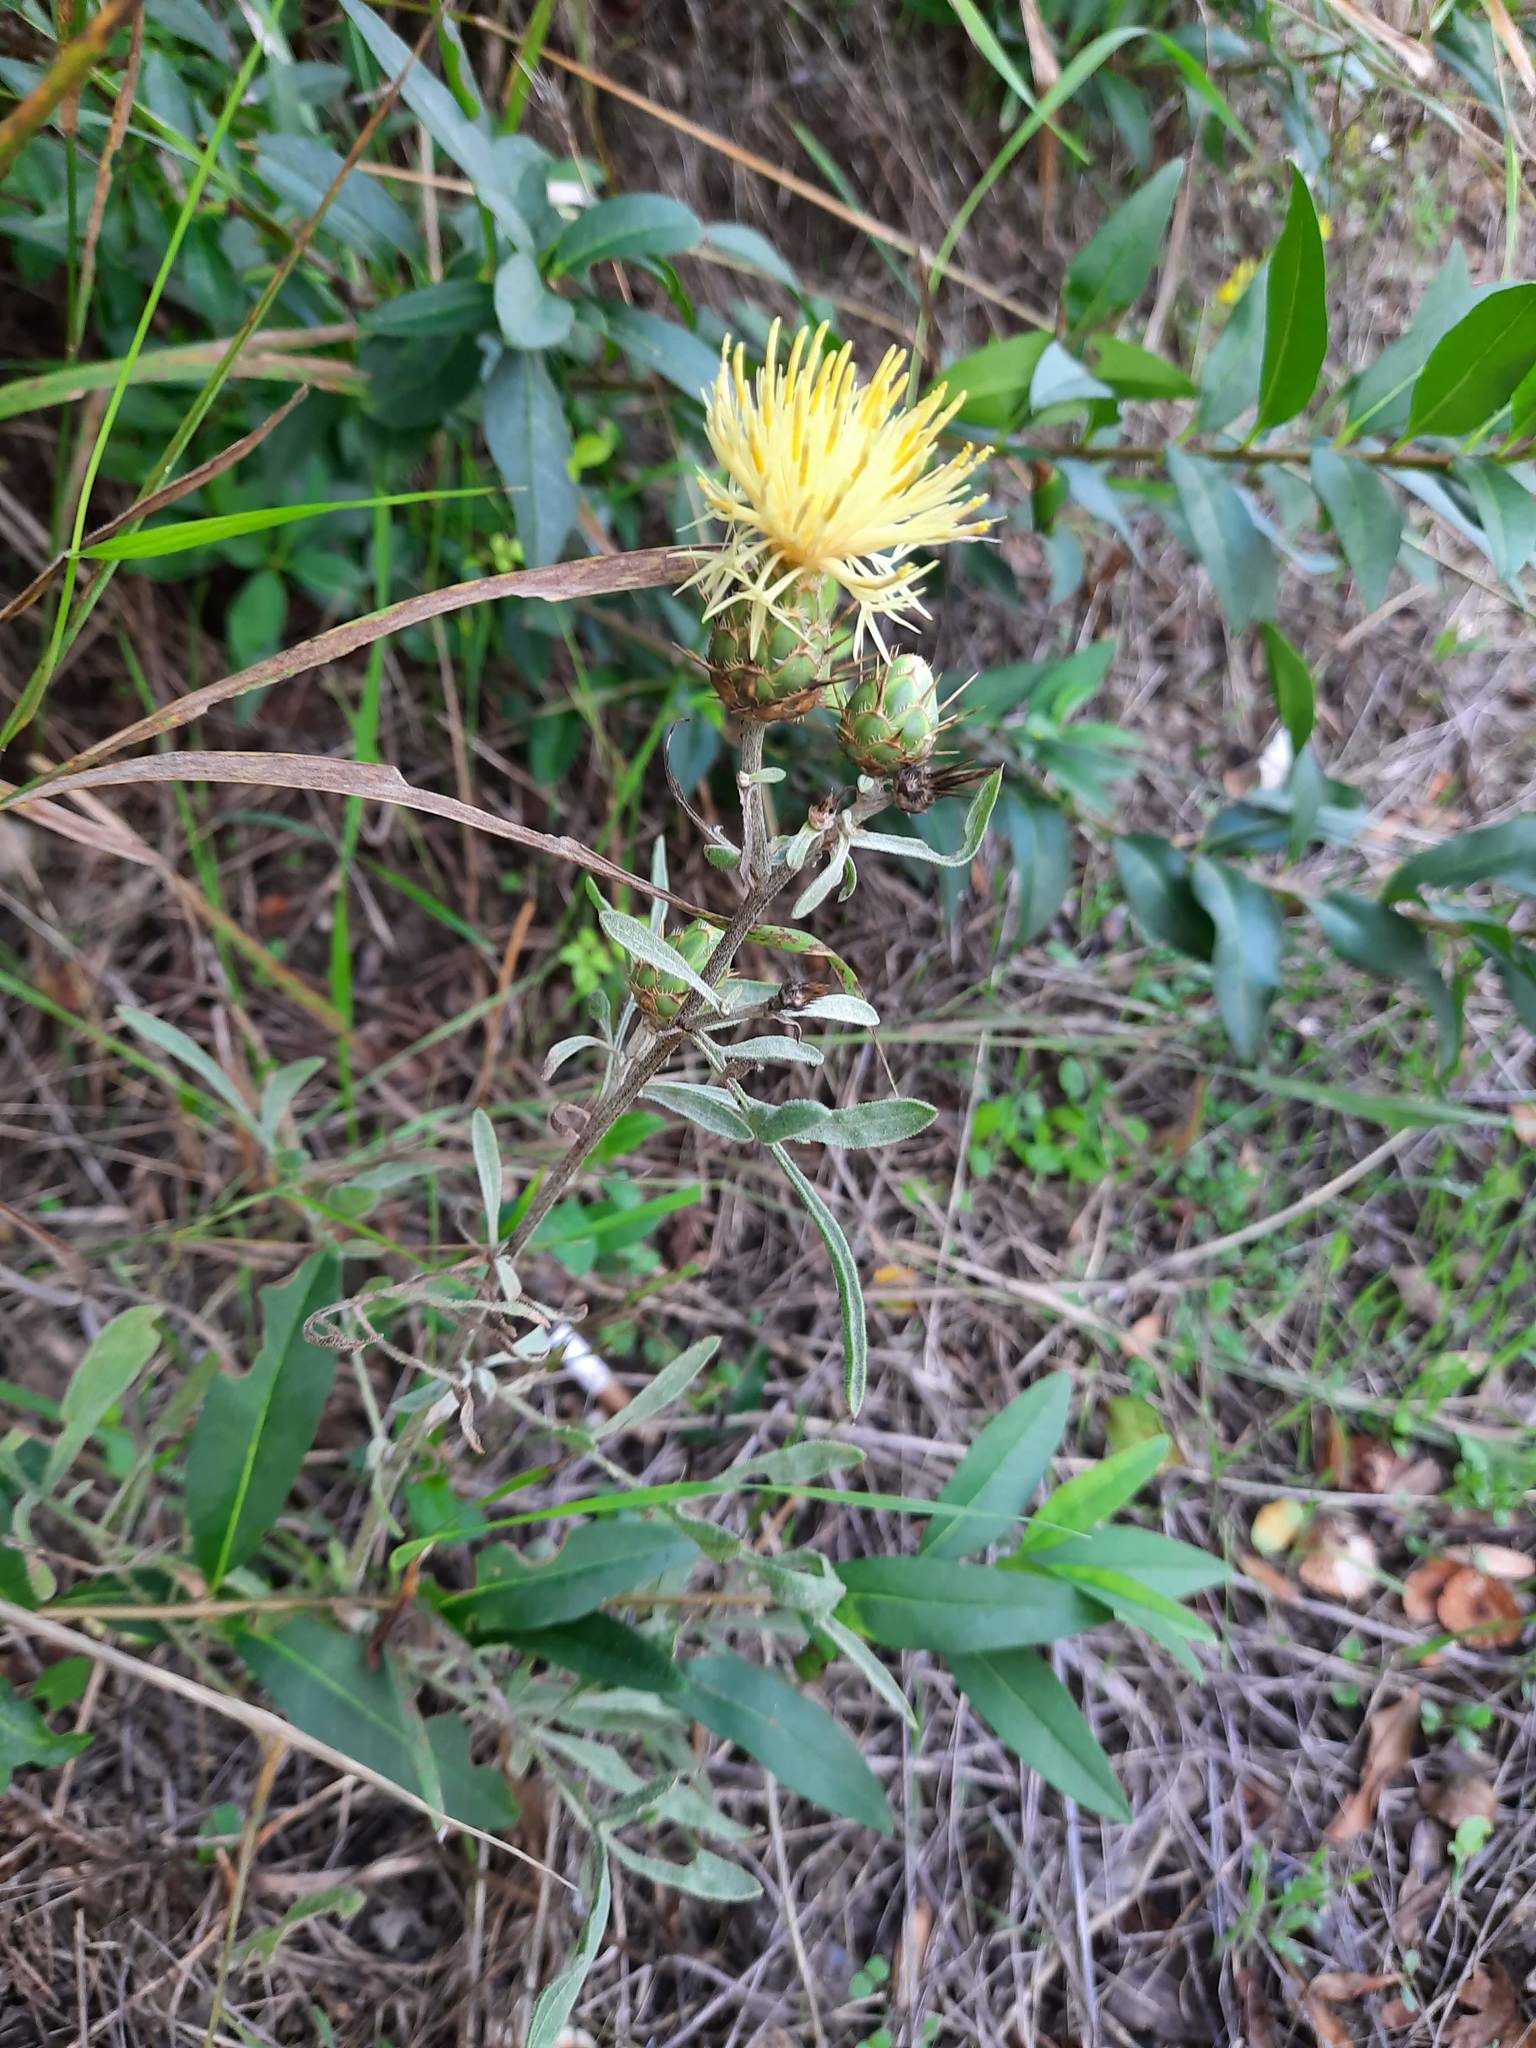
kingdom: Plantae
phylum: Tracheophyta
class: Magnoliopsida
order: Asterales
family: Asteraceae
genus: Centaurea
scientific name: Centaurea salonitana
